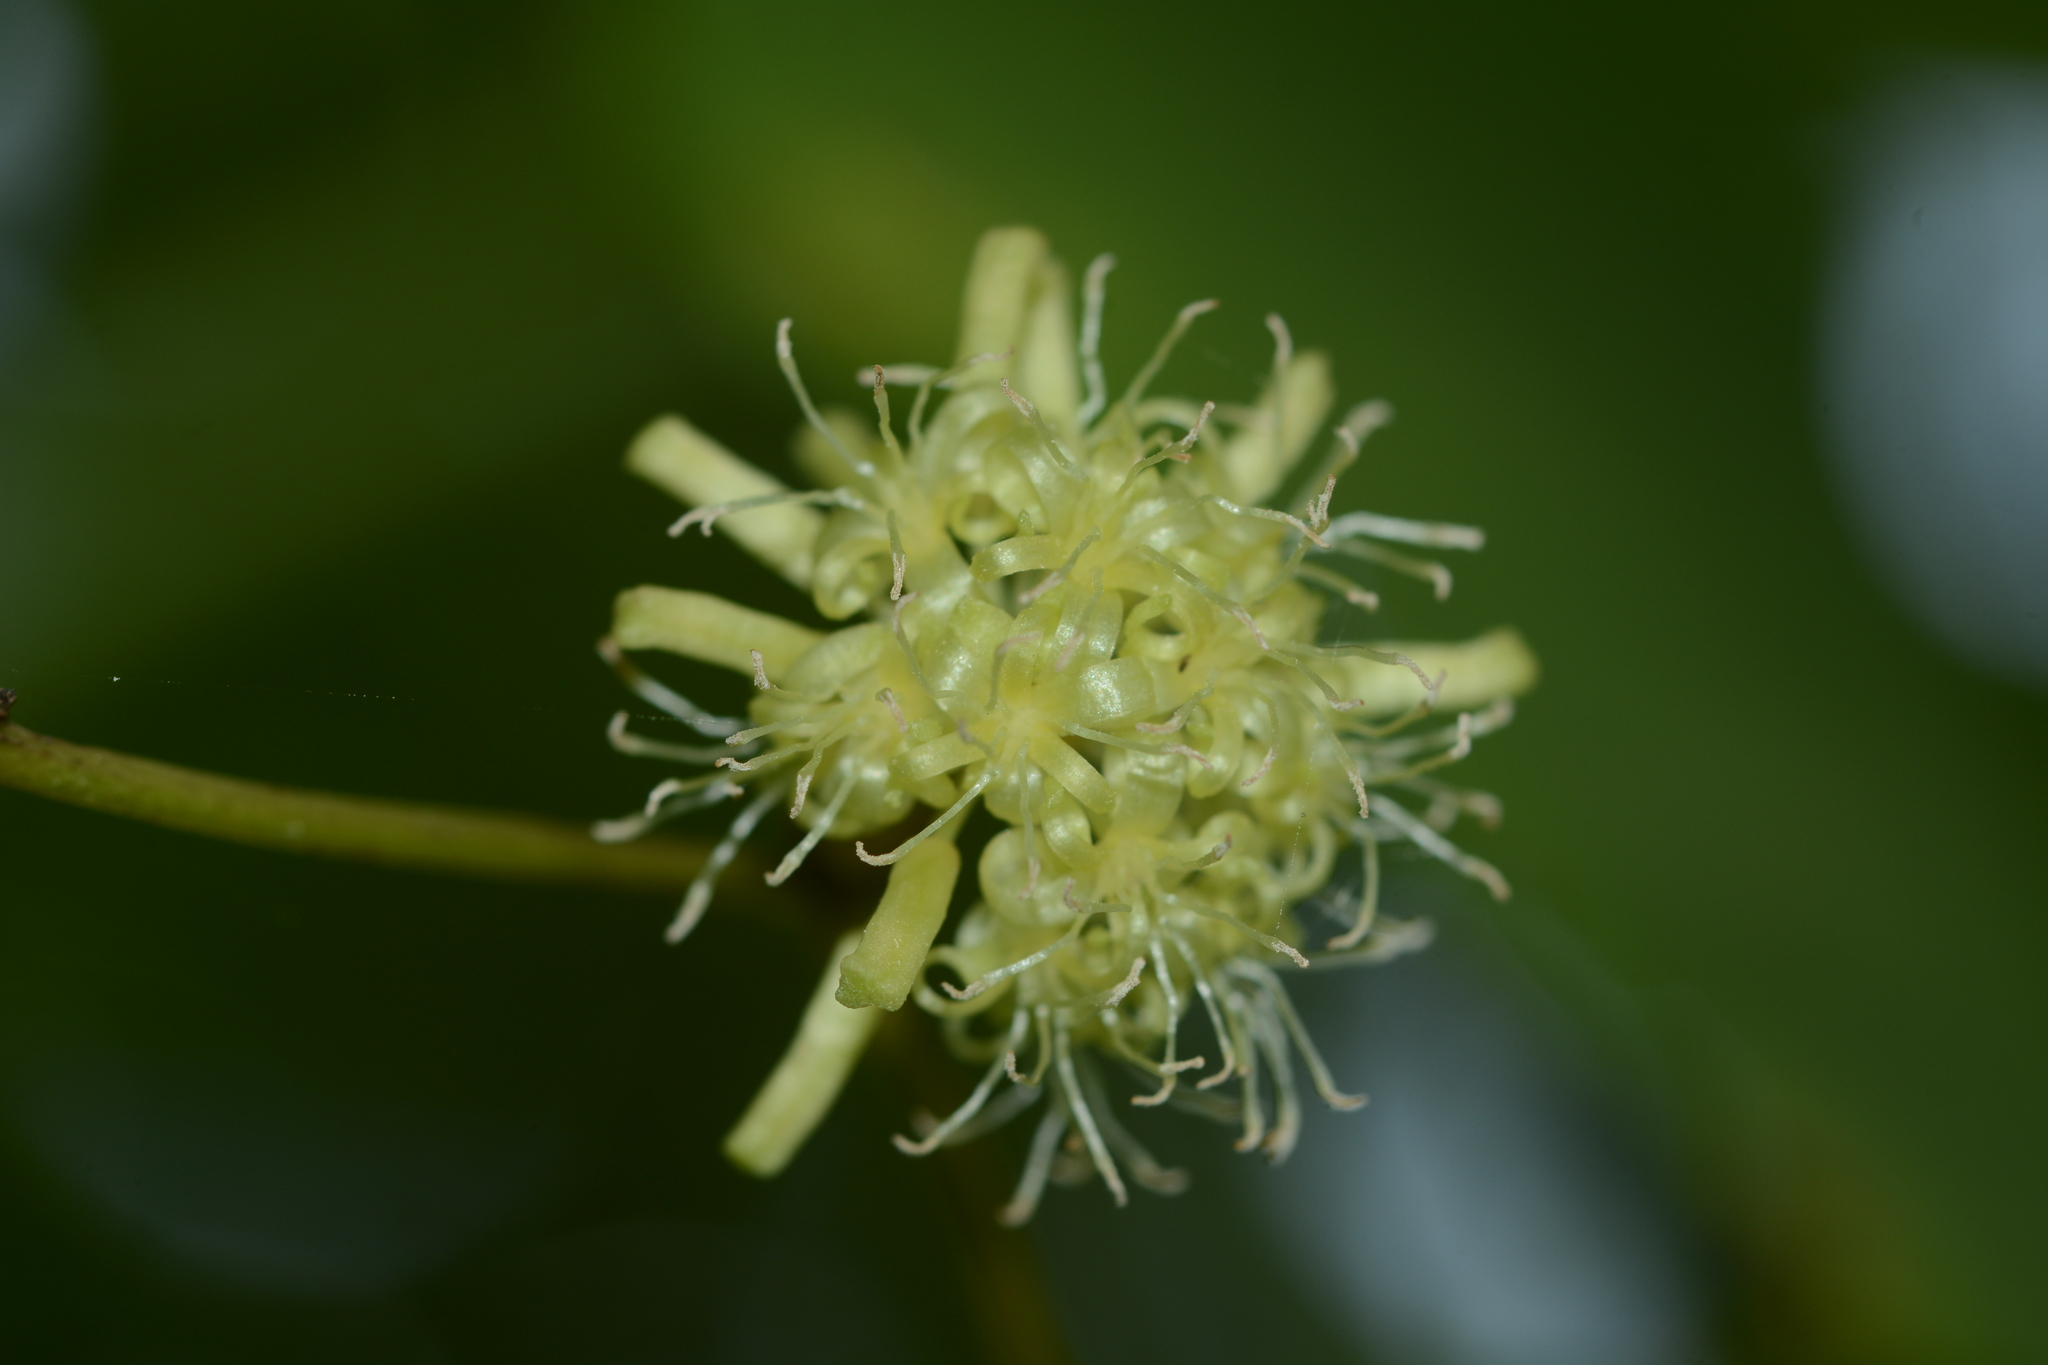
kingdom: Plantae
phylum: Tracheophyta
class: Liliopsida
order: Liliales
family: Smilacaceae
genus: Smilax
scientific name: Smilax ovalifolia
